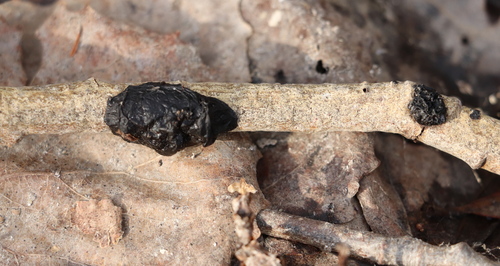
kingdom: Fungi
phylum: Basidiomycota
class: Agaricomycetes
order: Auriculariales
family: Auriculariaceae
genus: Exidia
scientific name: Exidia
